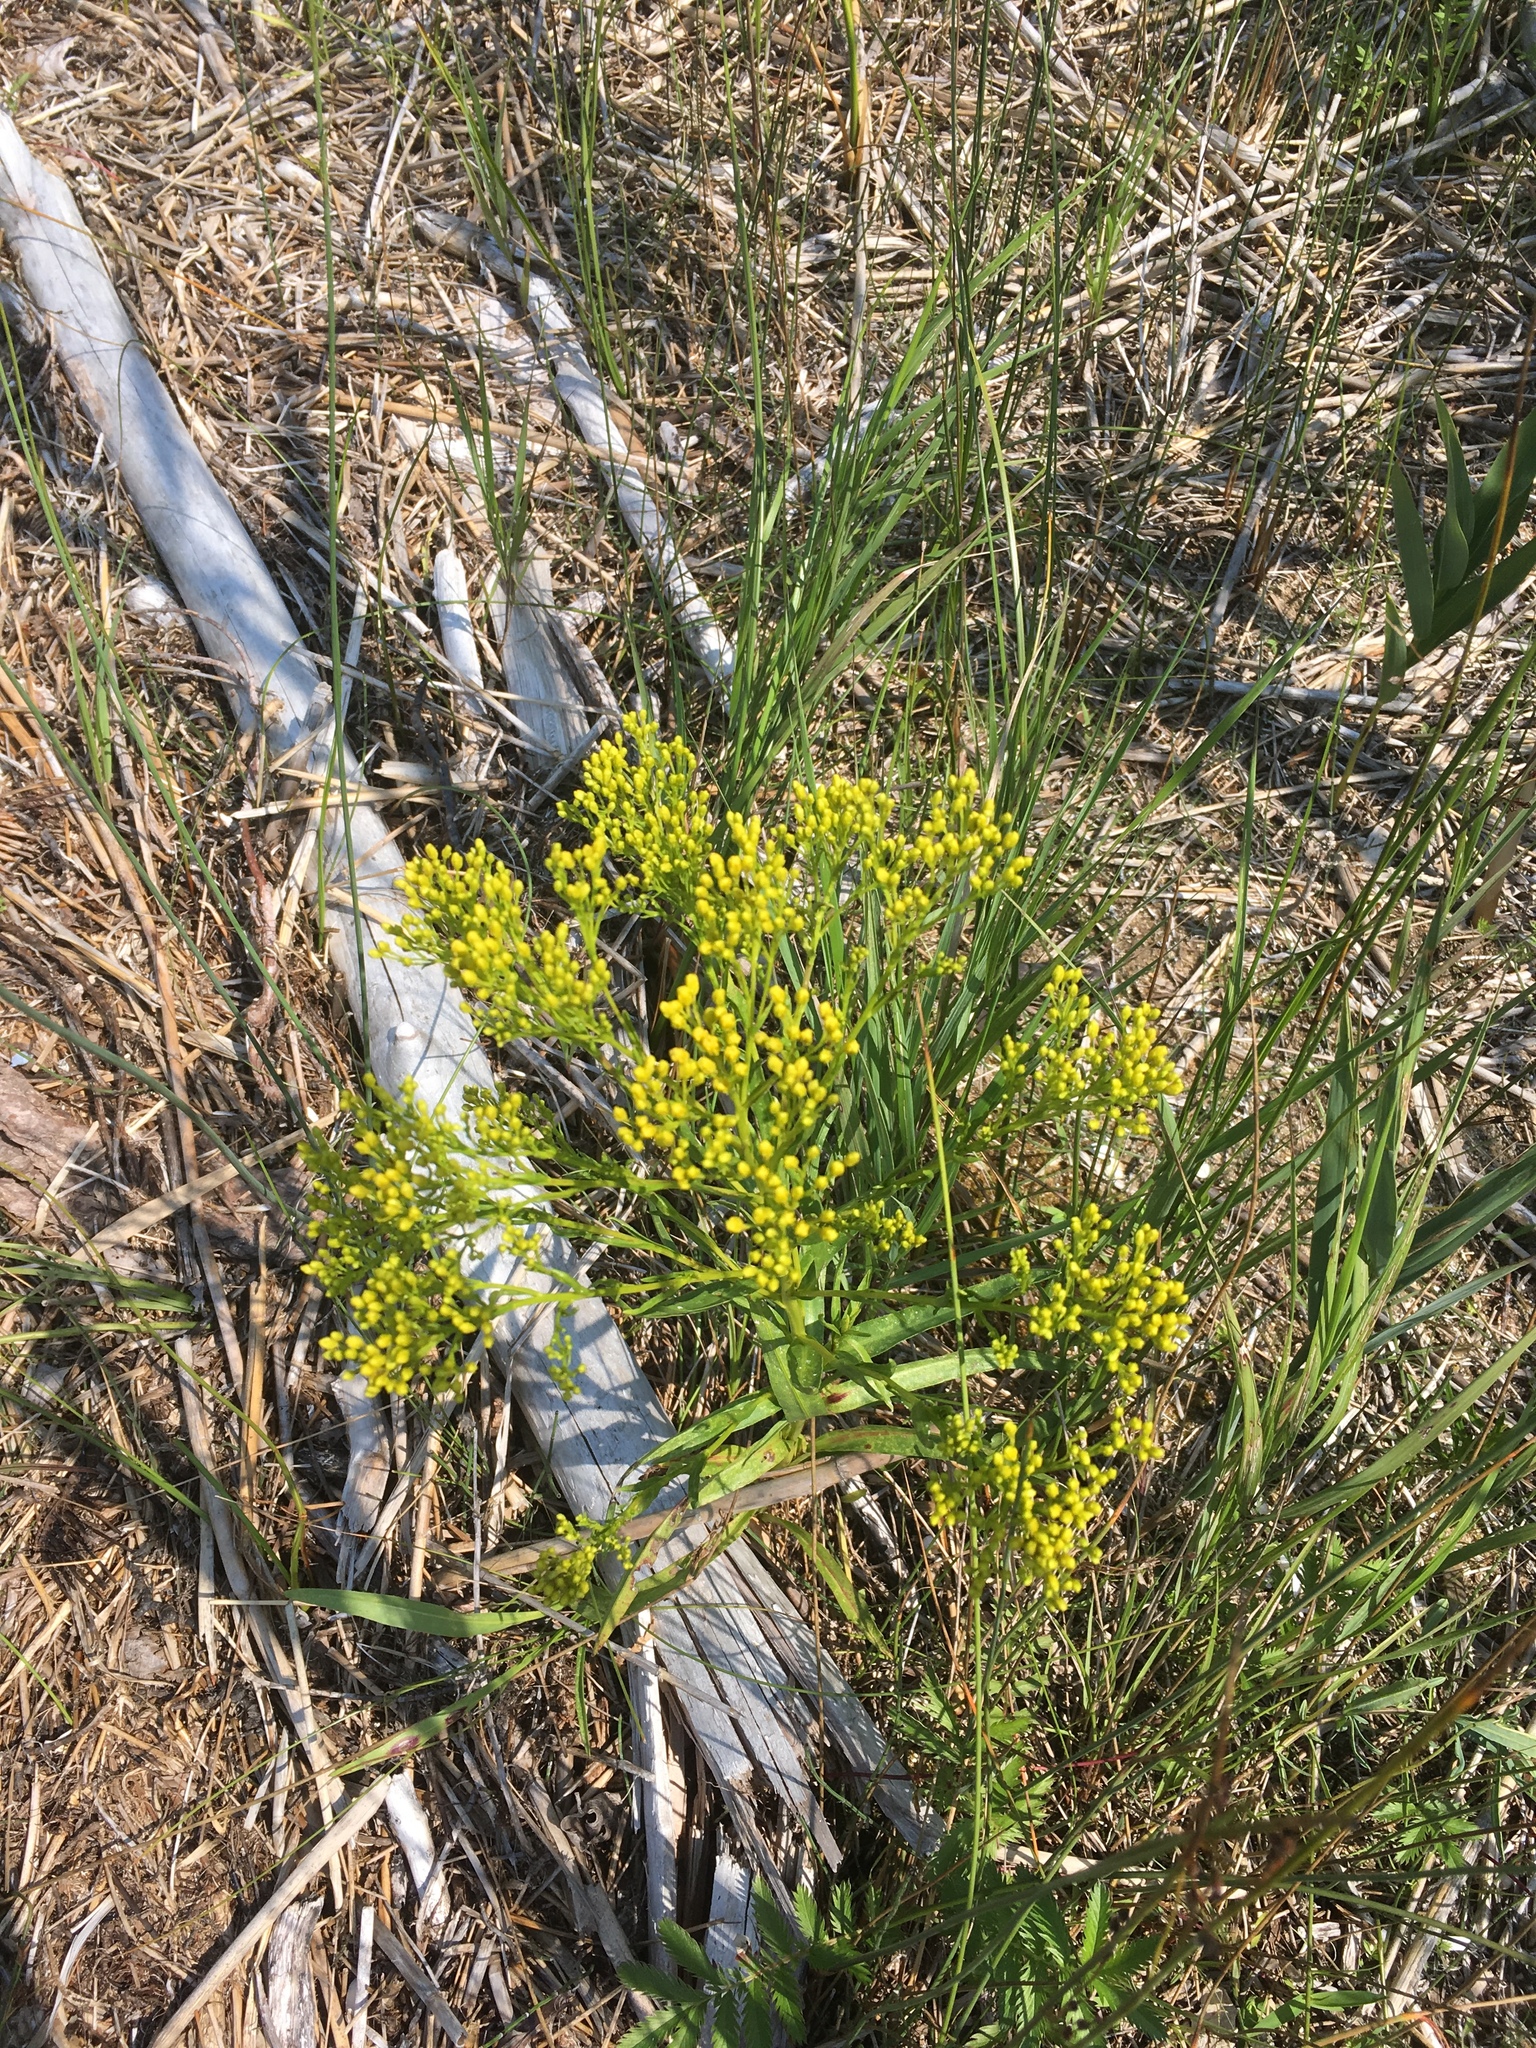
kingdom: Plantae
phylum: Tracheophyta
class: Magnoliopsida
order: Asterales
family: Asteraceae
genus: Solidago
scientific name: Solidago ohioensis
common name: Ohio goldenrod
